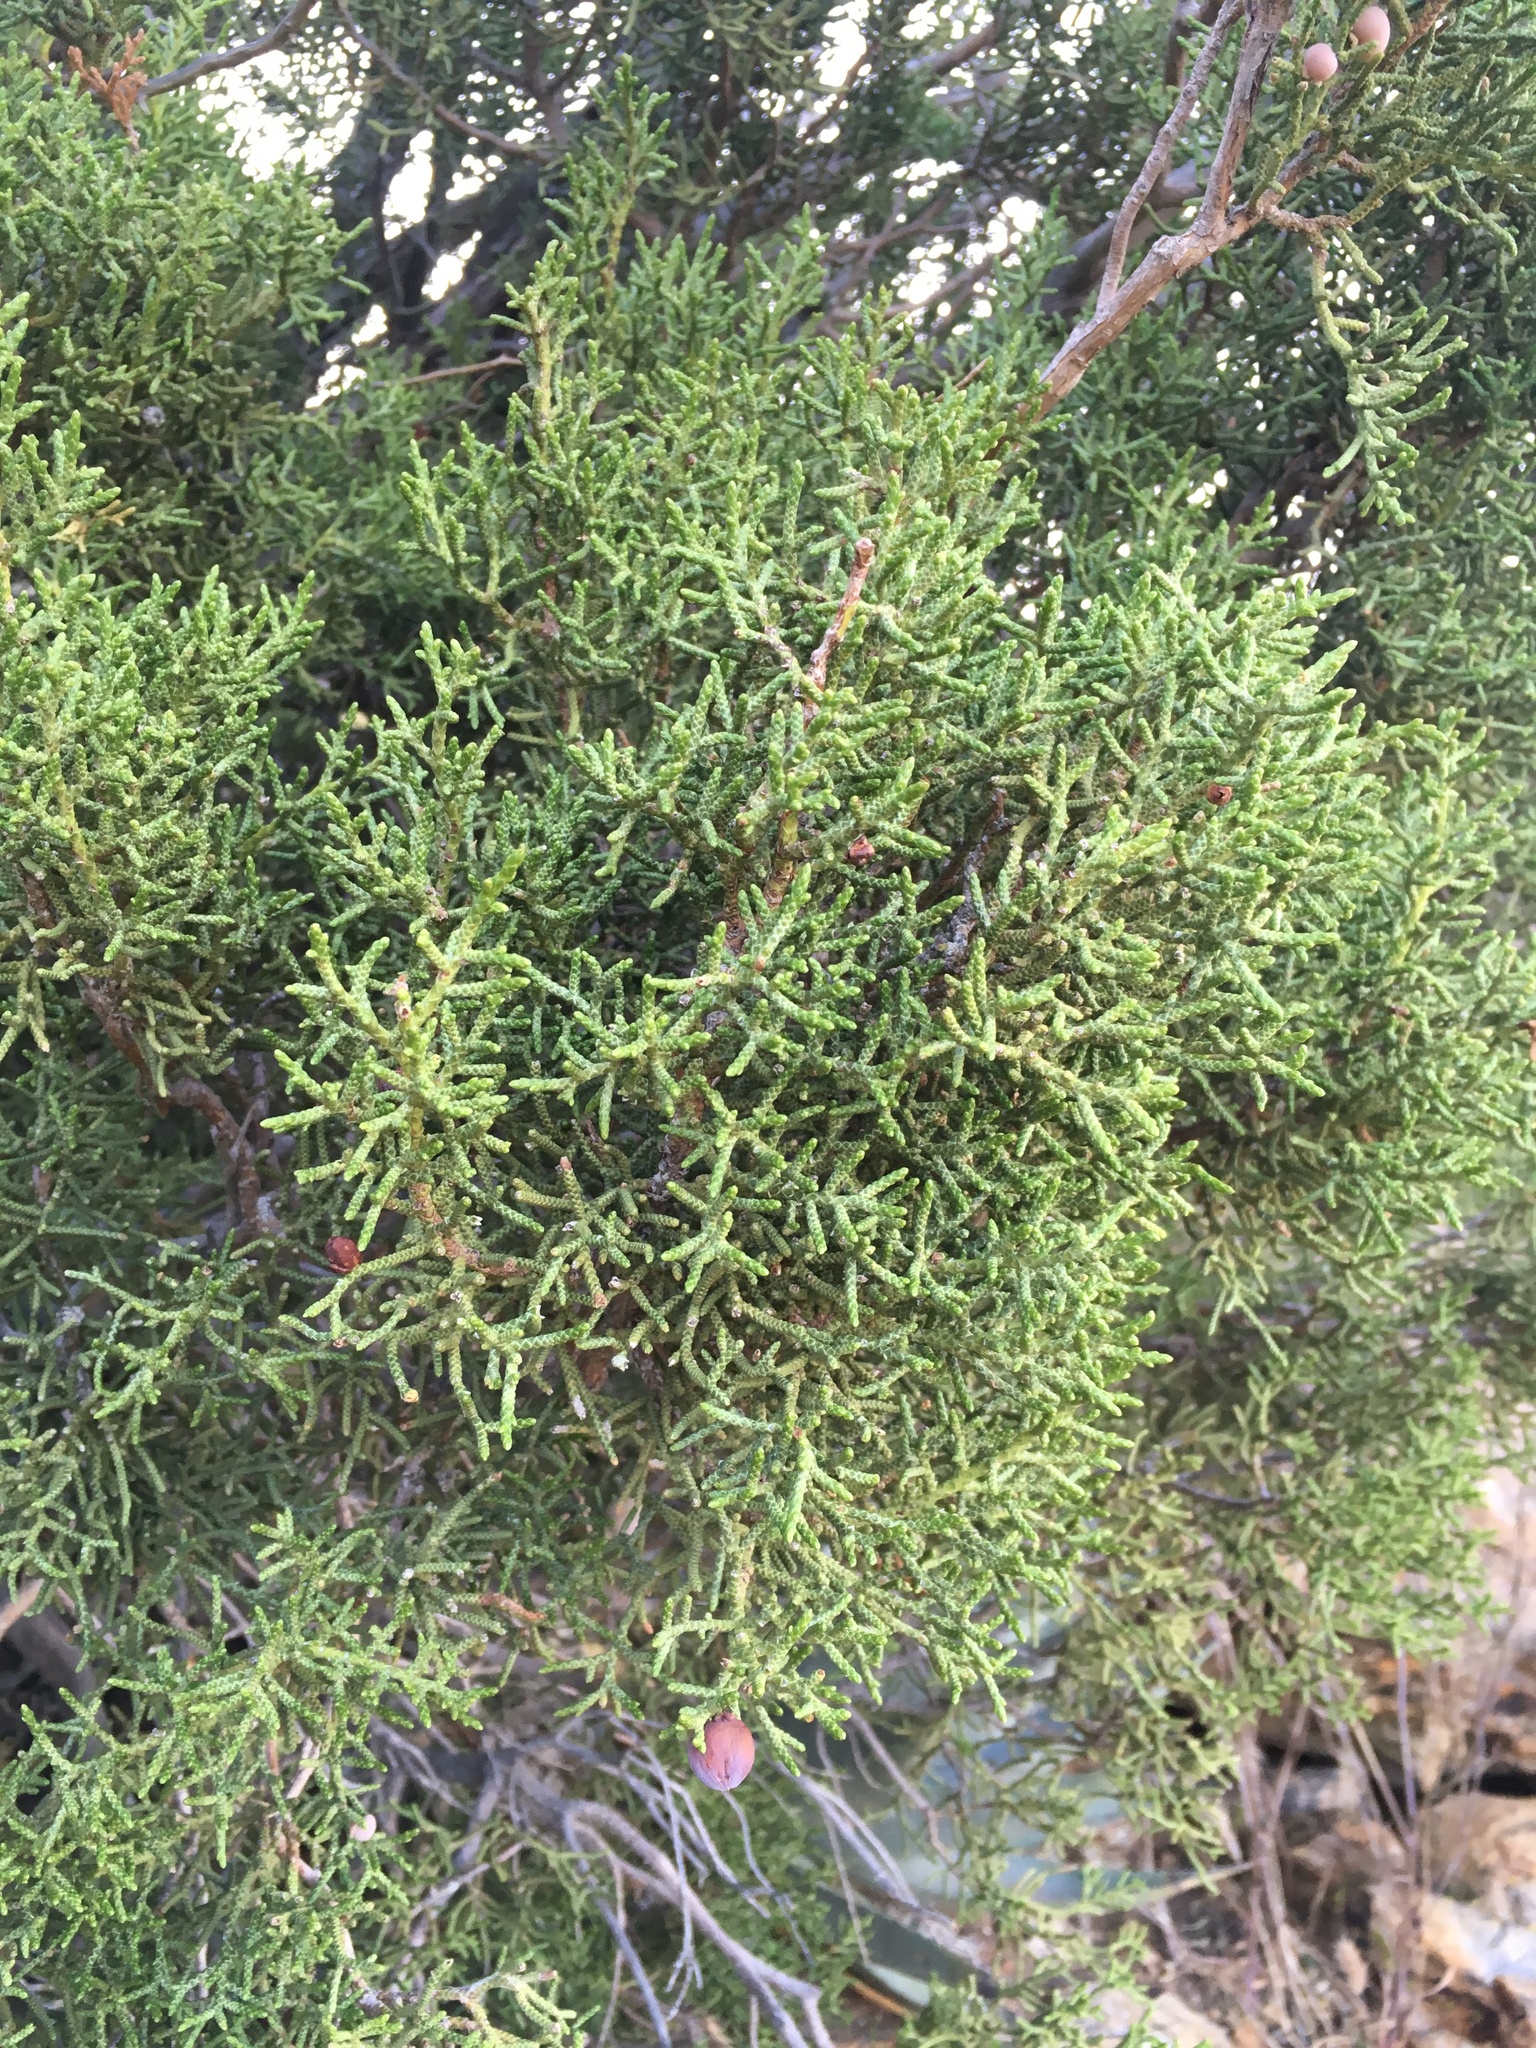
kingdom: Plantae
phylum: Tracheophyta
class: Pinopsida
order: Pinales
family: Cupressaceae
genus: Juniperus
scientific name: Juniperus californica
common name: California juniper
